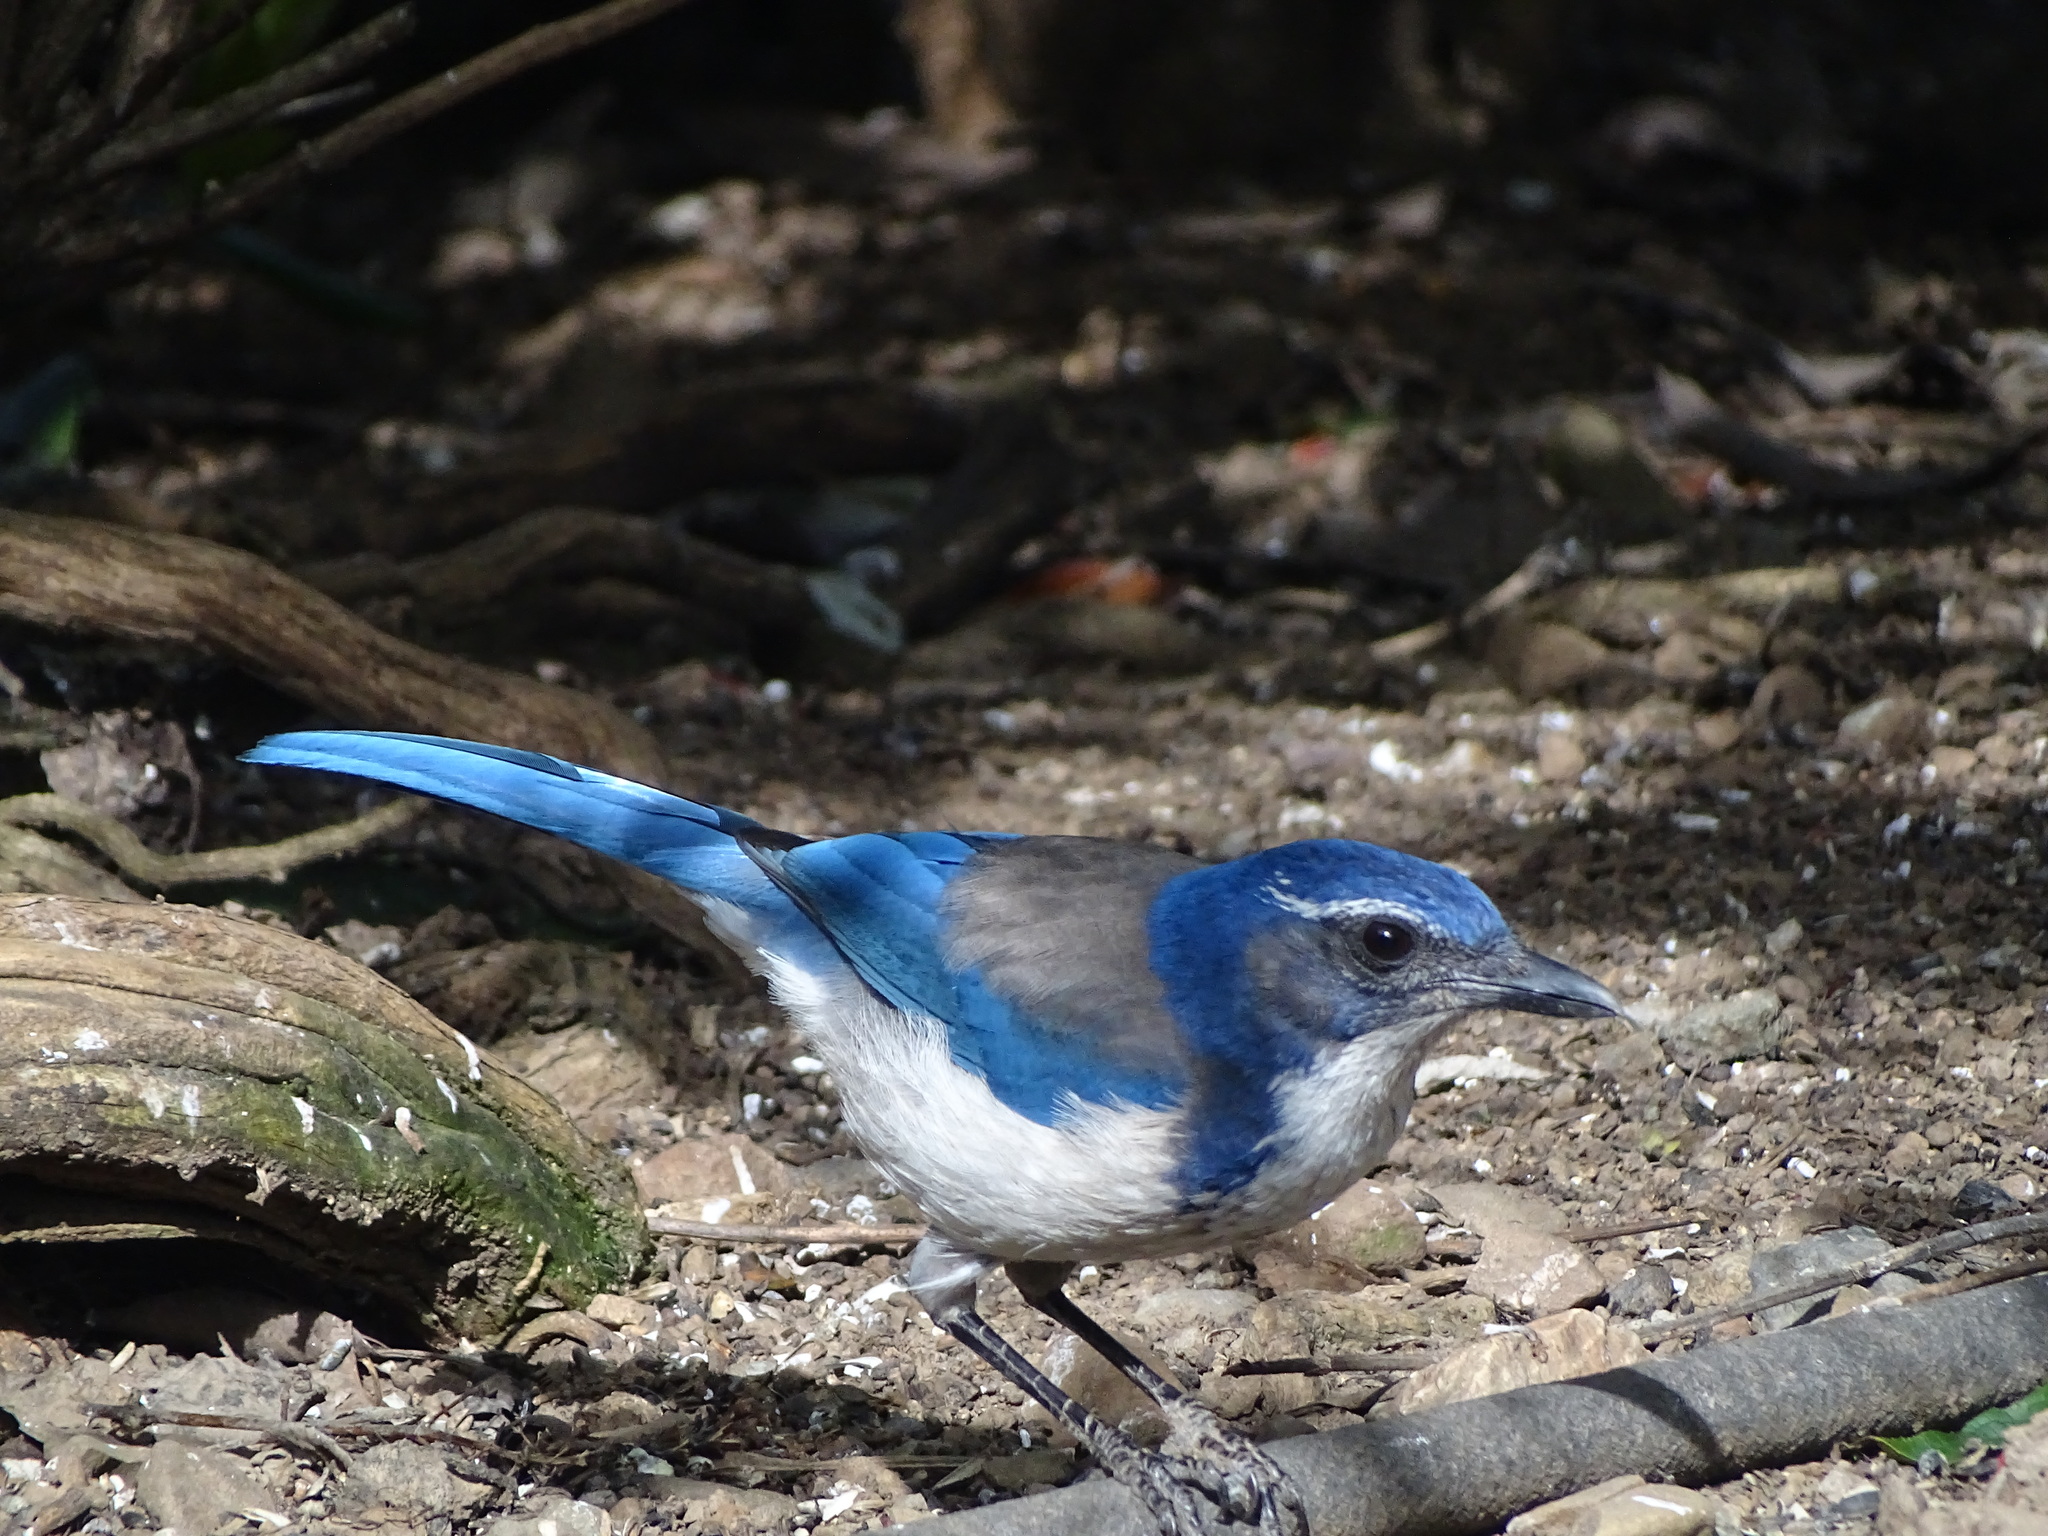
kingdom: Animalia
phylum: Chordata
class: Aves
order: Passeriformes
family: Corvidae
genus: Aphelocoma
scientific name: Aphelocoma californica
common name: California scrub-jay
